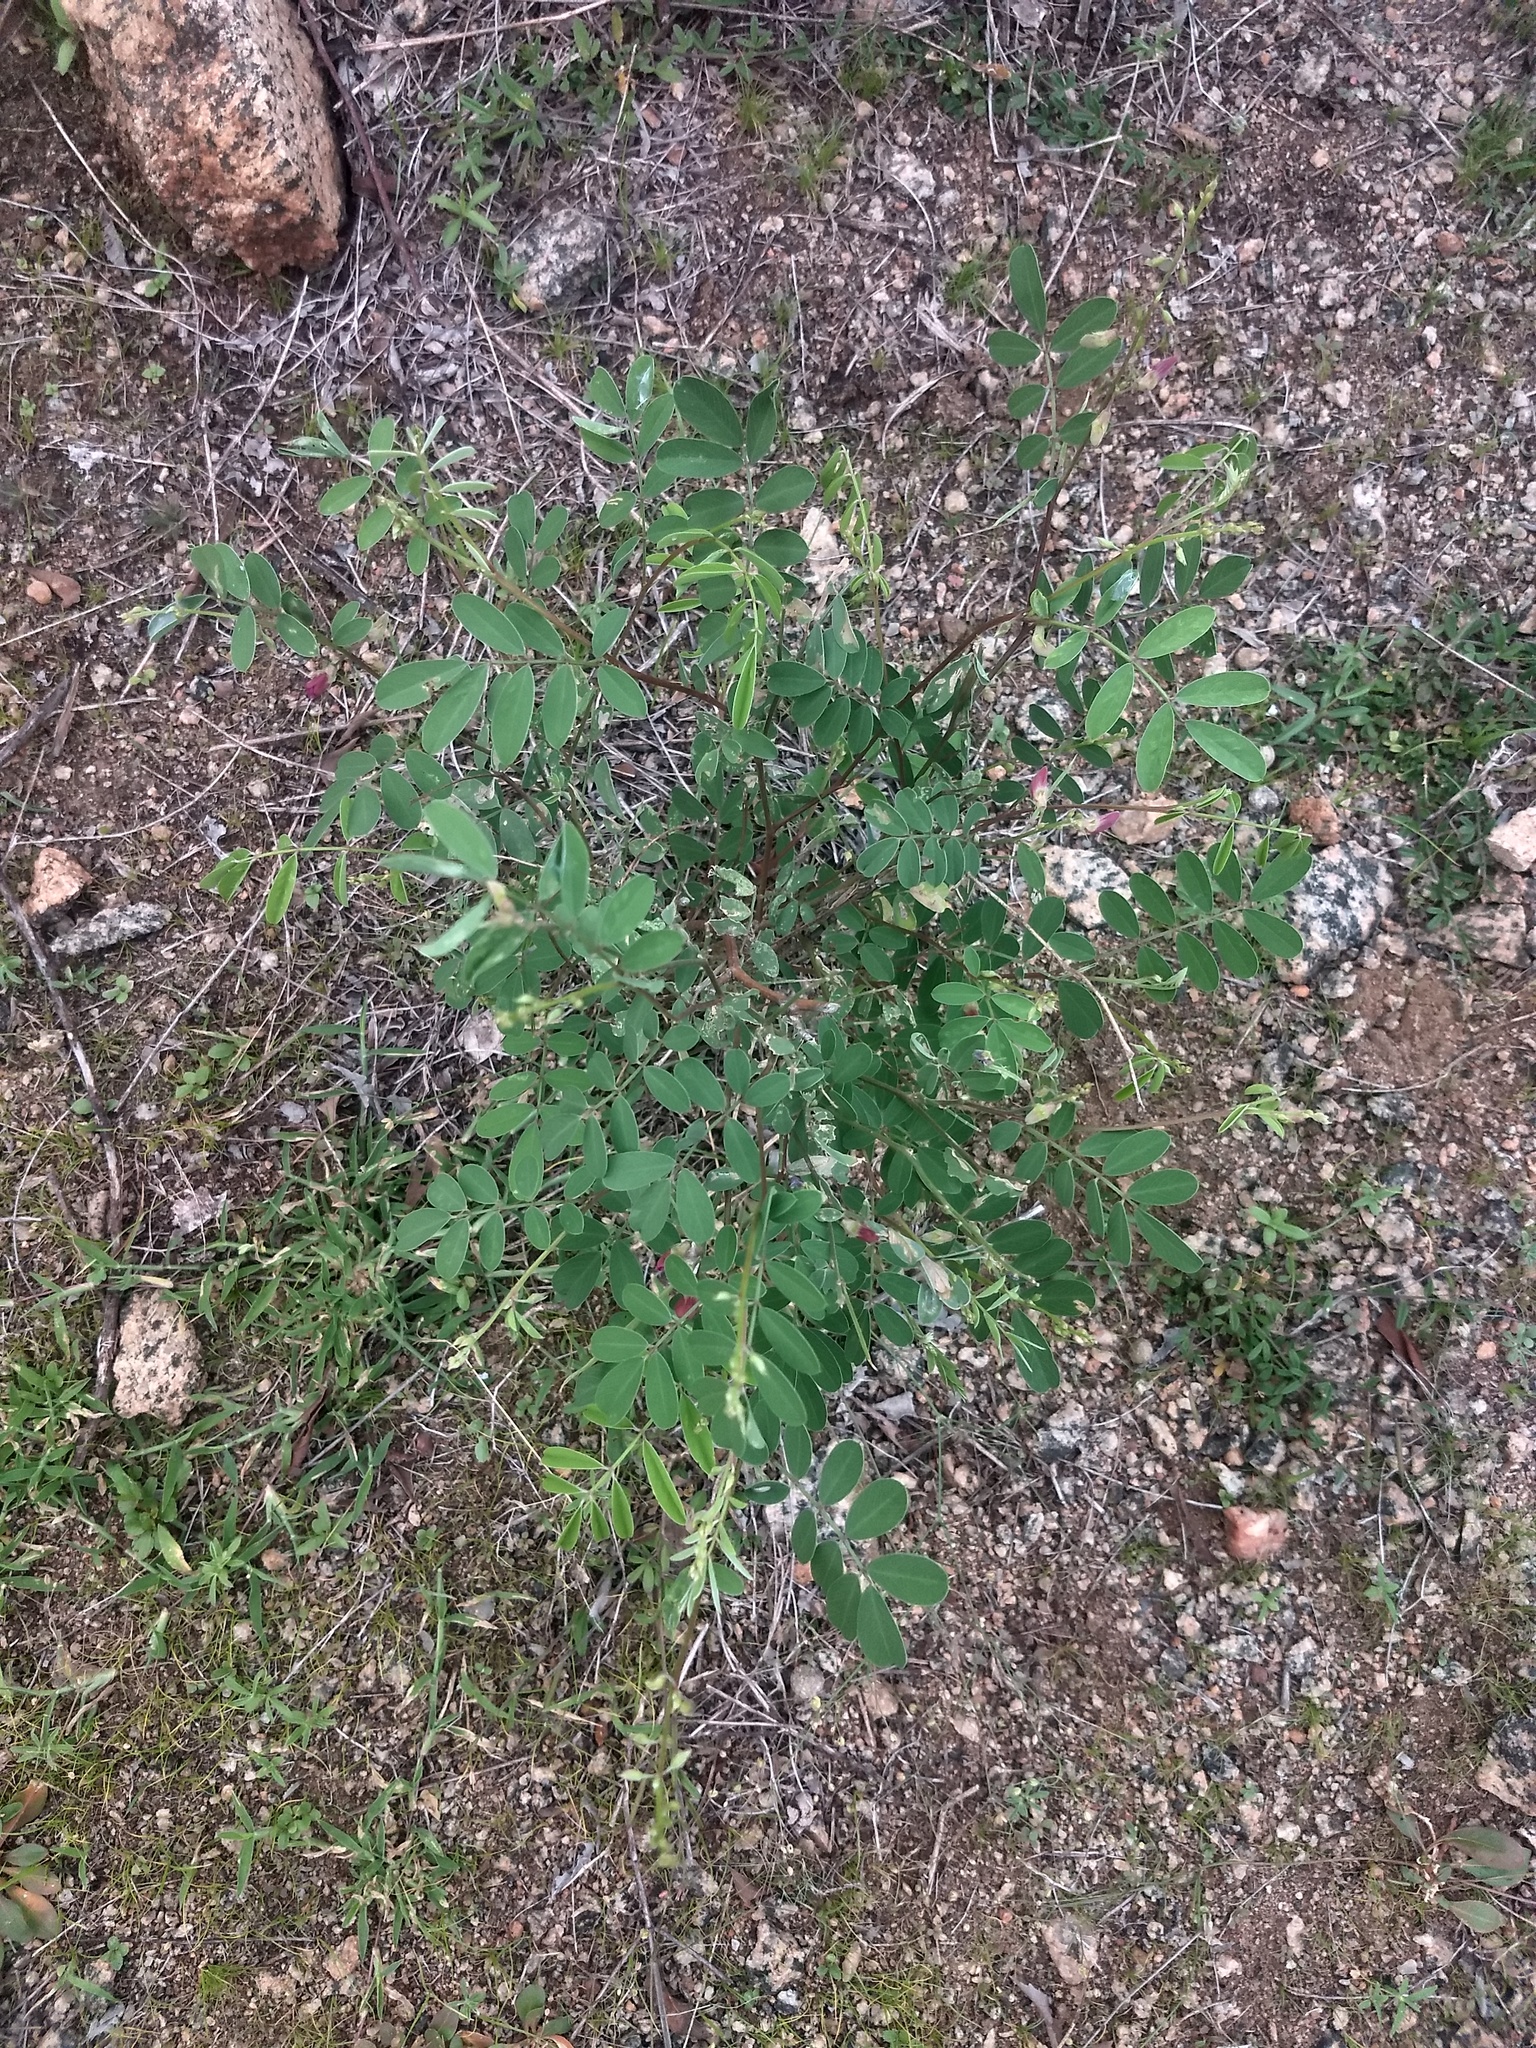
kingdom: Plantae
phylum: Tracheophyta
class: Magnoliopsida
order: Fabales
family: Fabaceae
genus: Tephrosia
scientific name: Tephrosia purpurea
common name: Fishpoison
